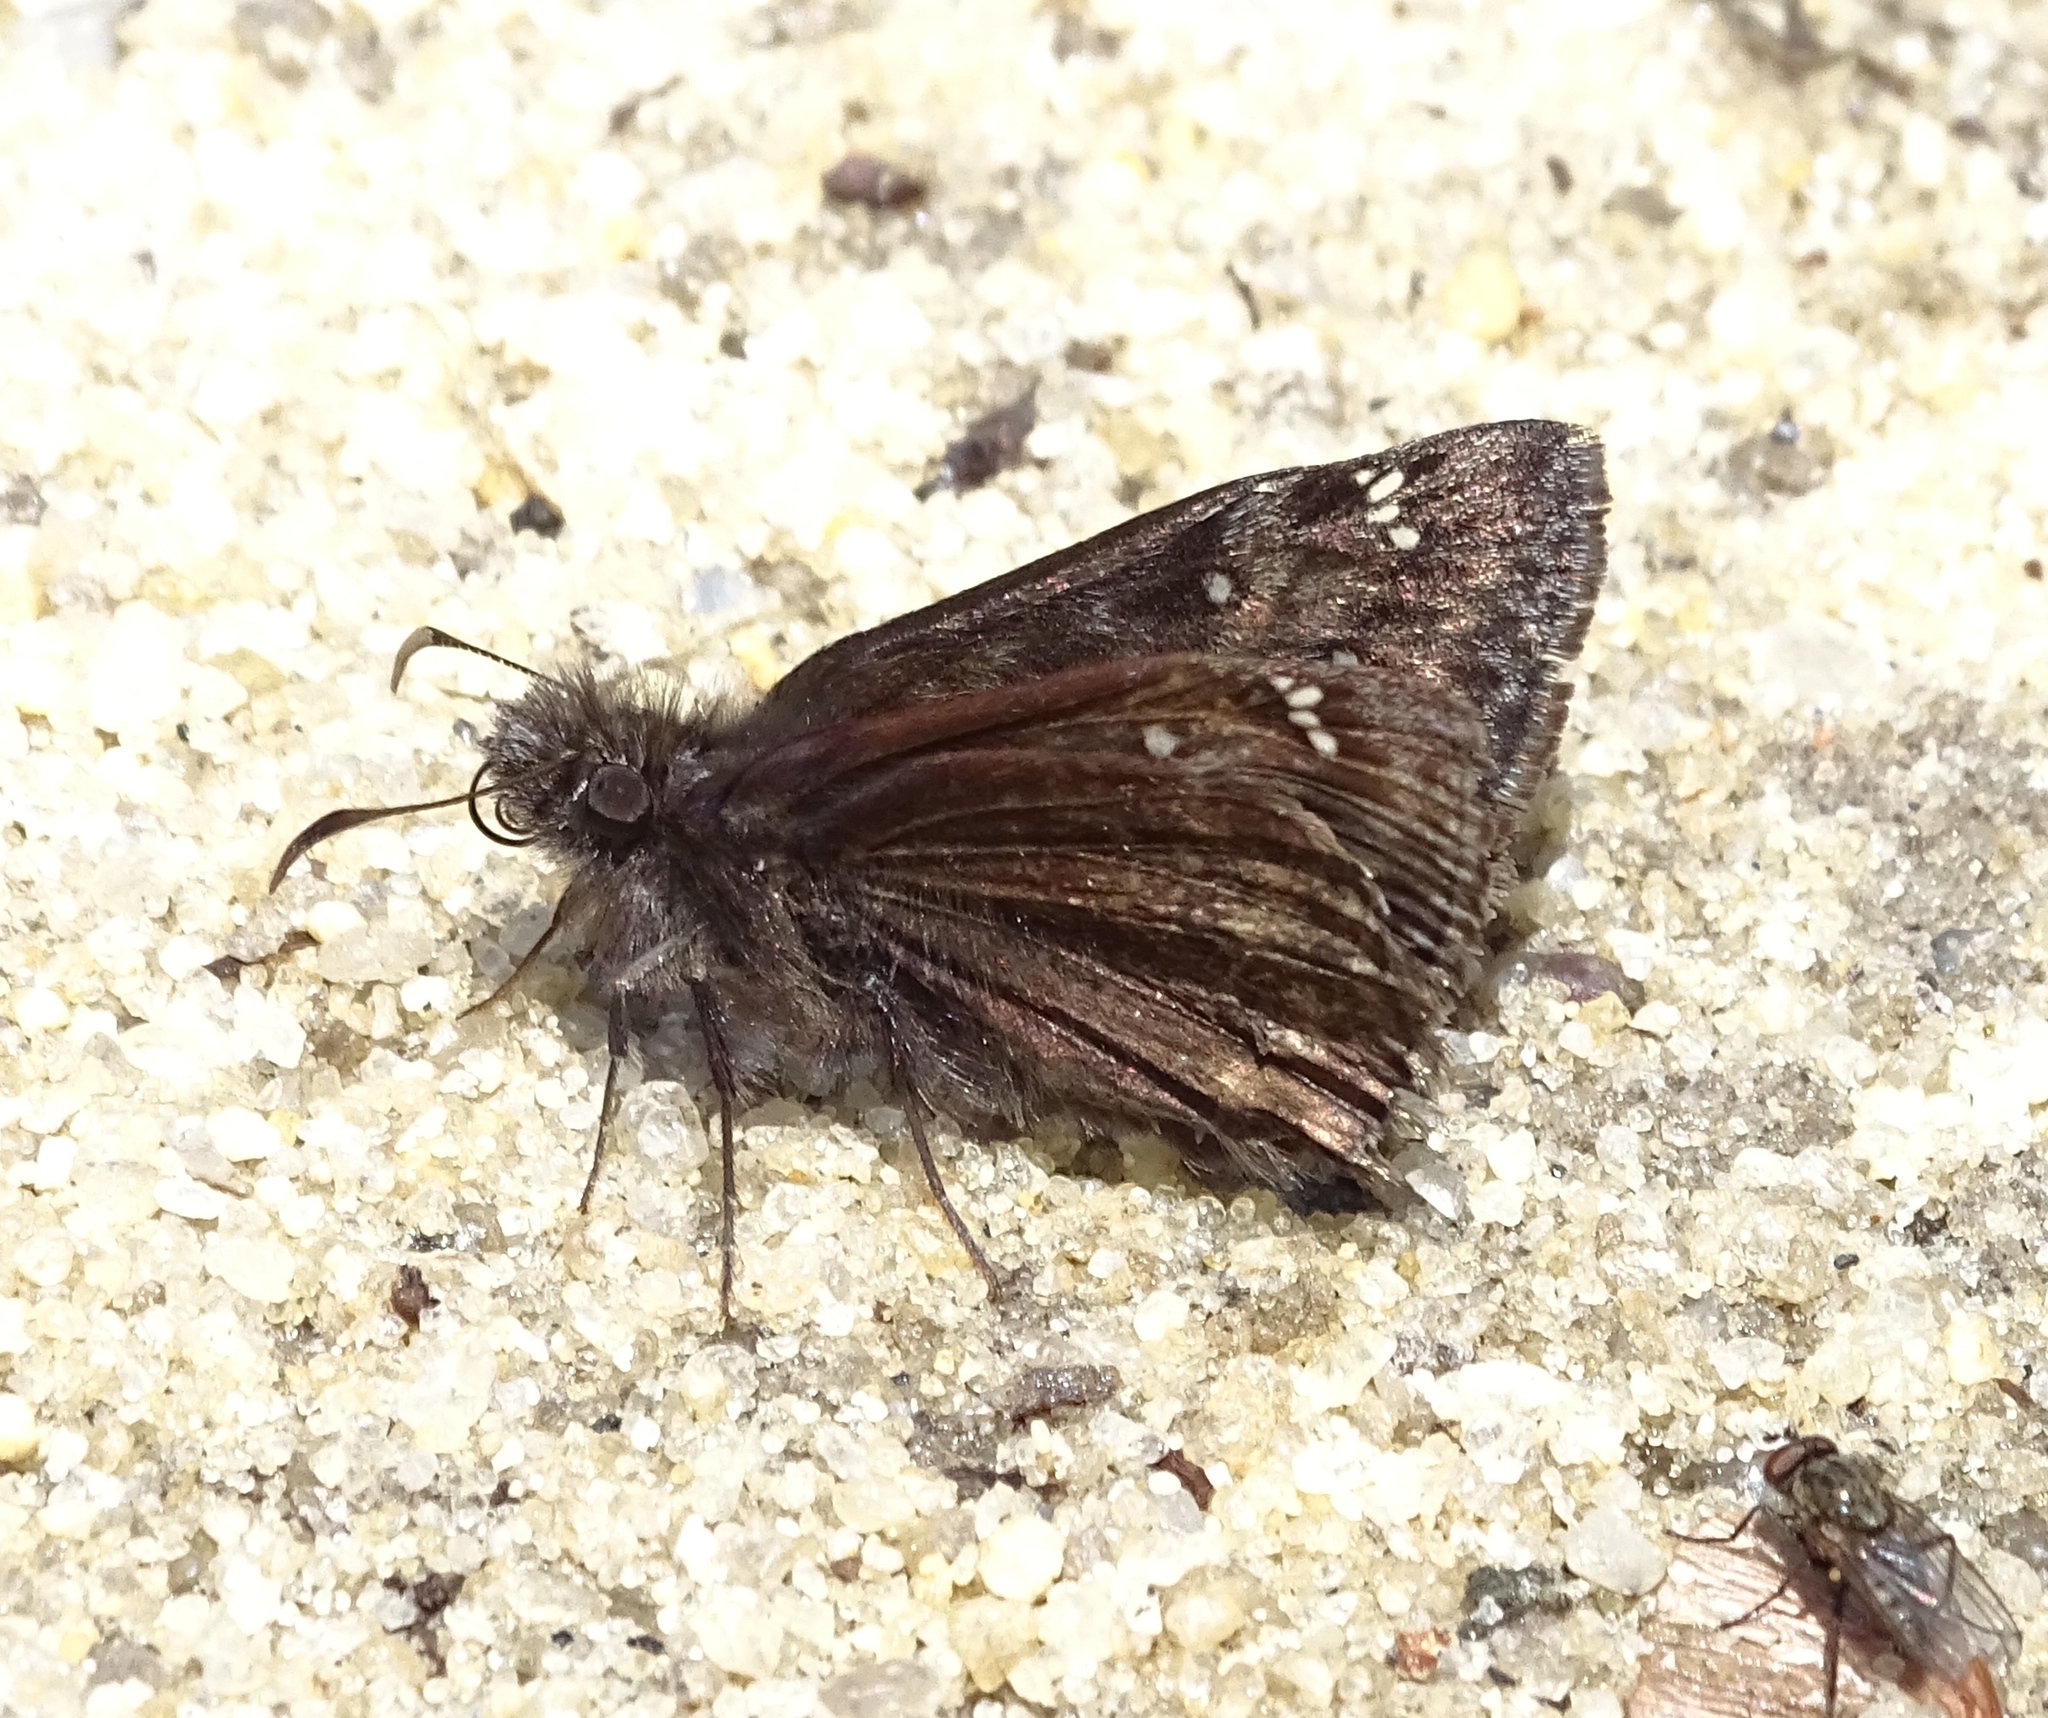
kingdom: Animalia
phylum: Arthropoda
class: Insecta
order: Lepidoptera
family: Hesperiidae
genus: Erynnis
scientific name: Erynnis horatius
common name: Horace's duskywing
